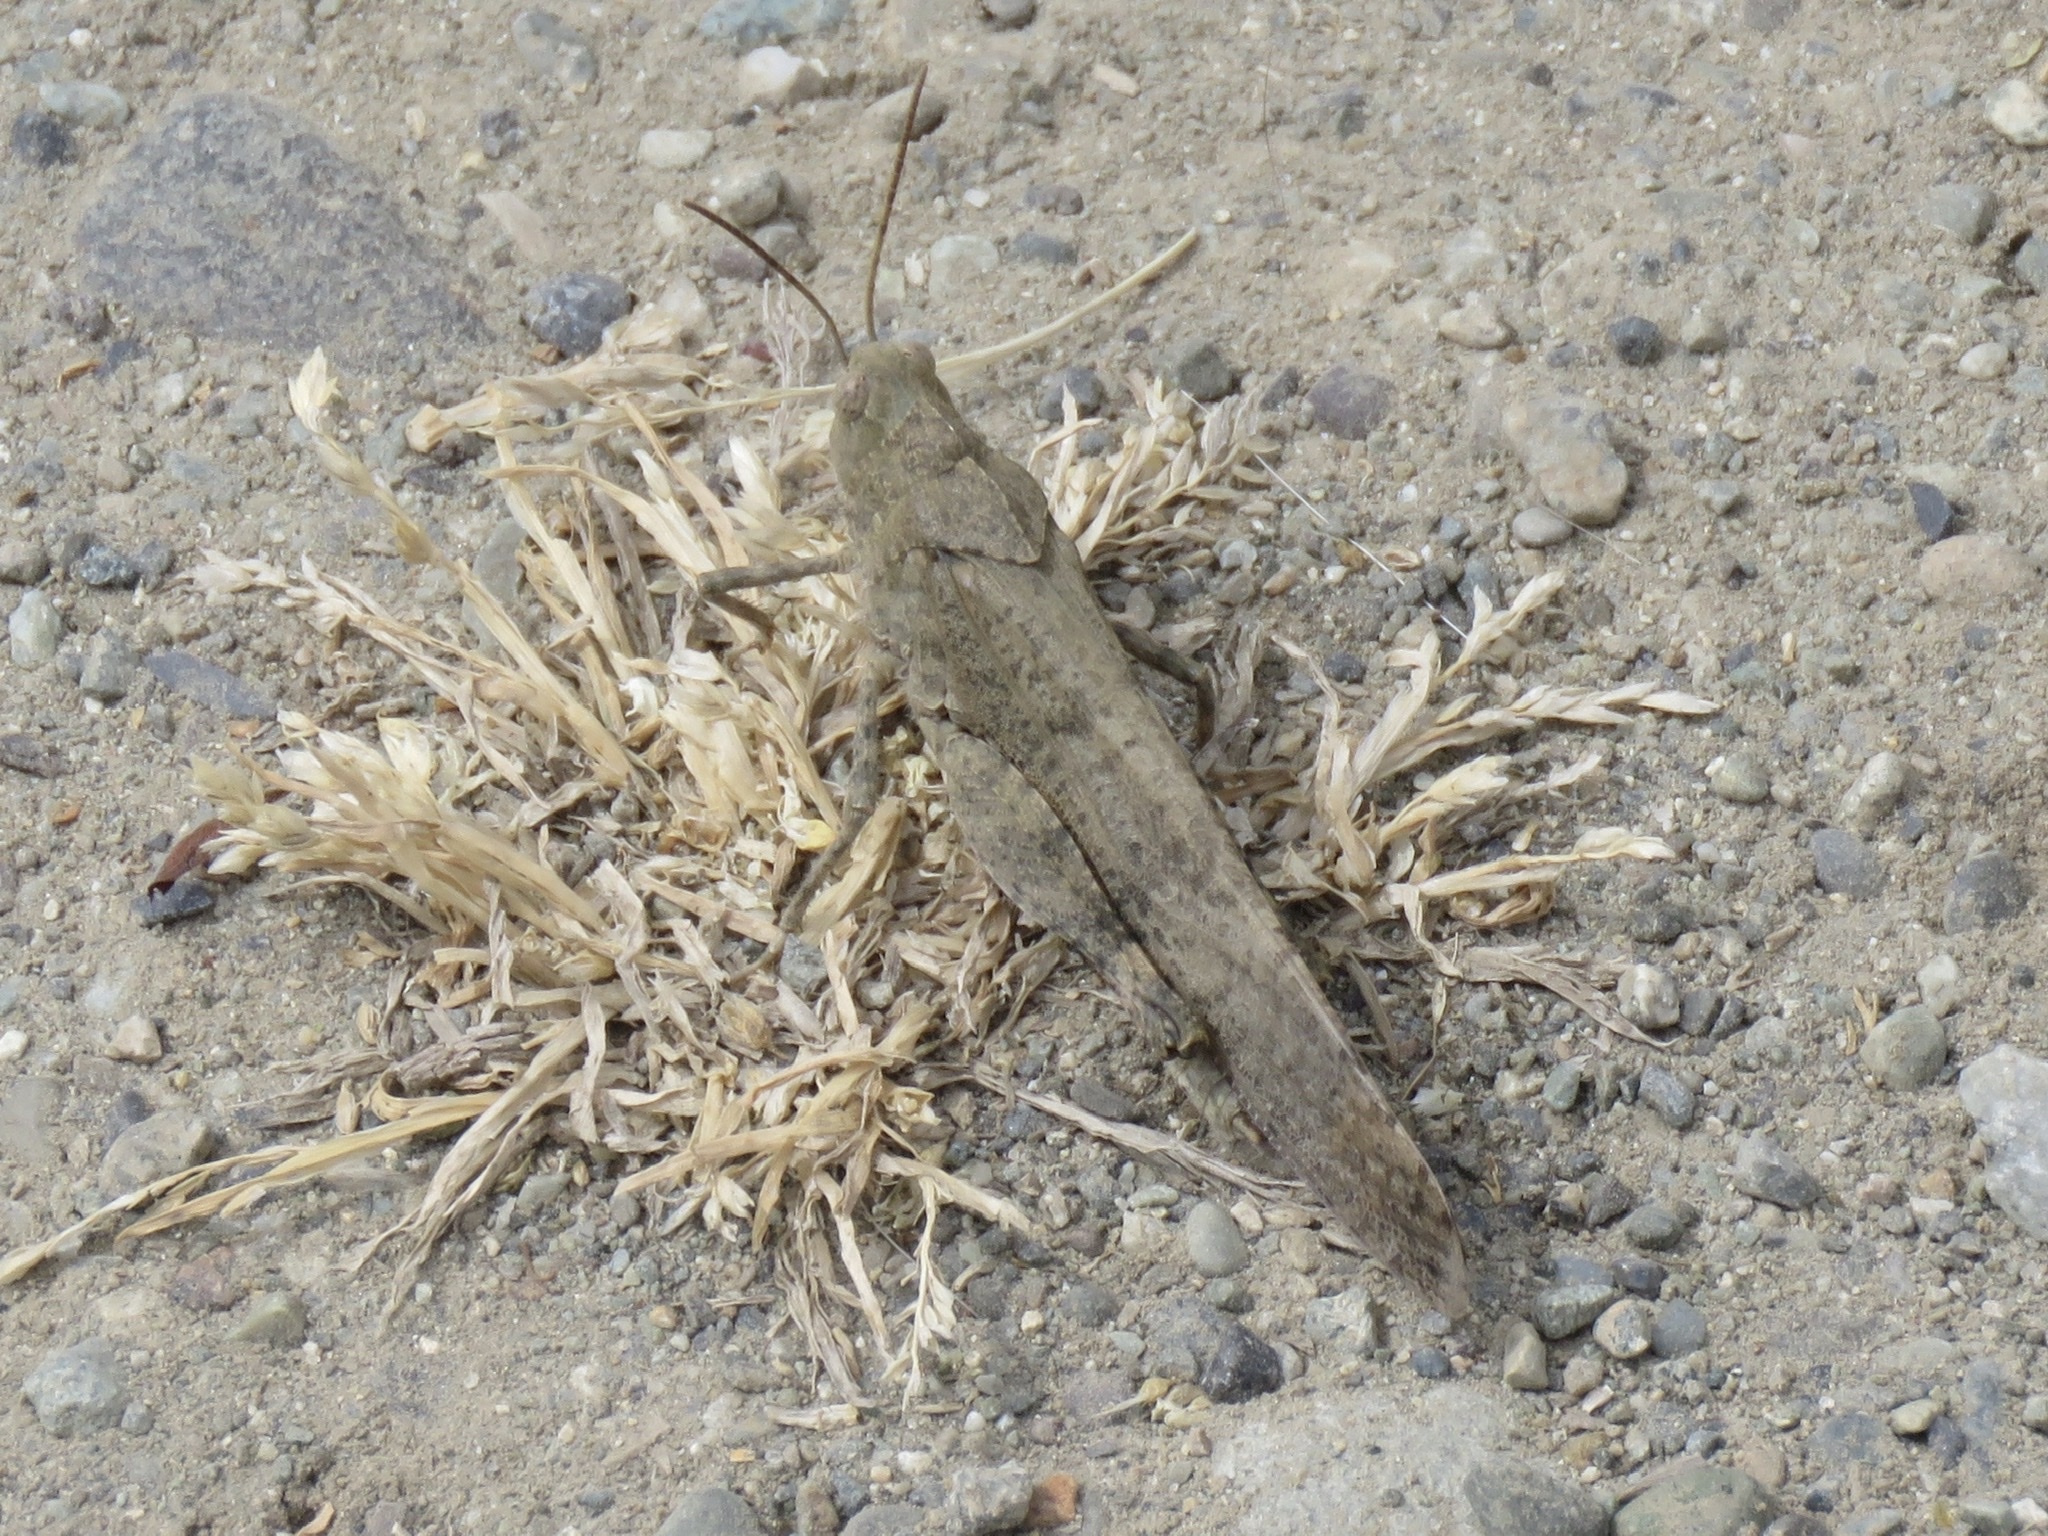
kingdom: Animalia
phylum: Arthropoda
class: Insecta
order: Orthoptera
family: Acrididae
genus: Dissosteira
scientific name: Dissosteira carolina
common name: Carolina grasshopper
